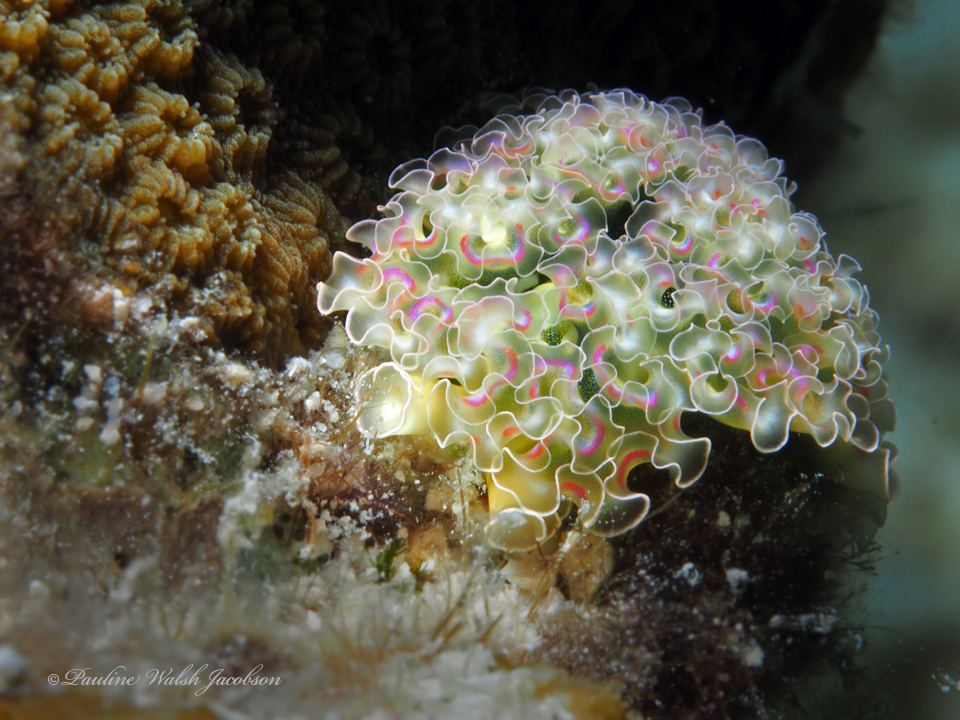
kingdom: Animalia
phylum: Mollusca
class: Gastropoda
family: Plakobranchidae
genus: Elysia
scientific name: Elysia crispata
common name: Lettuce slug
